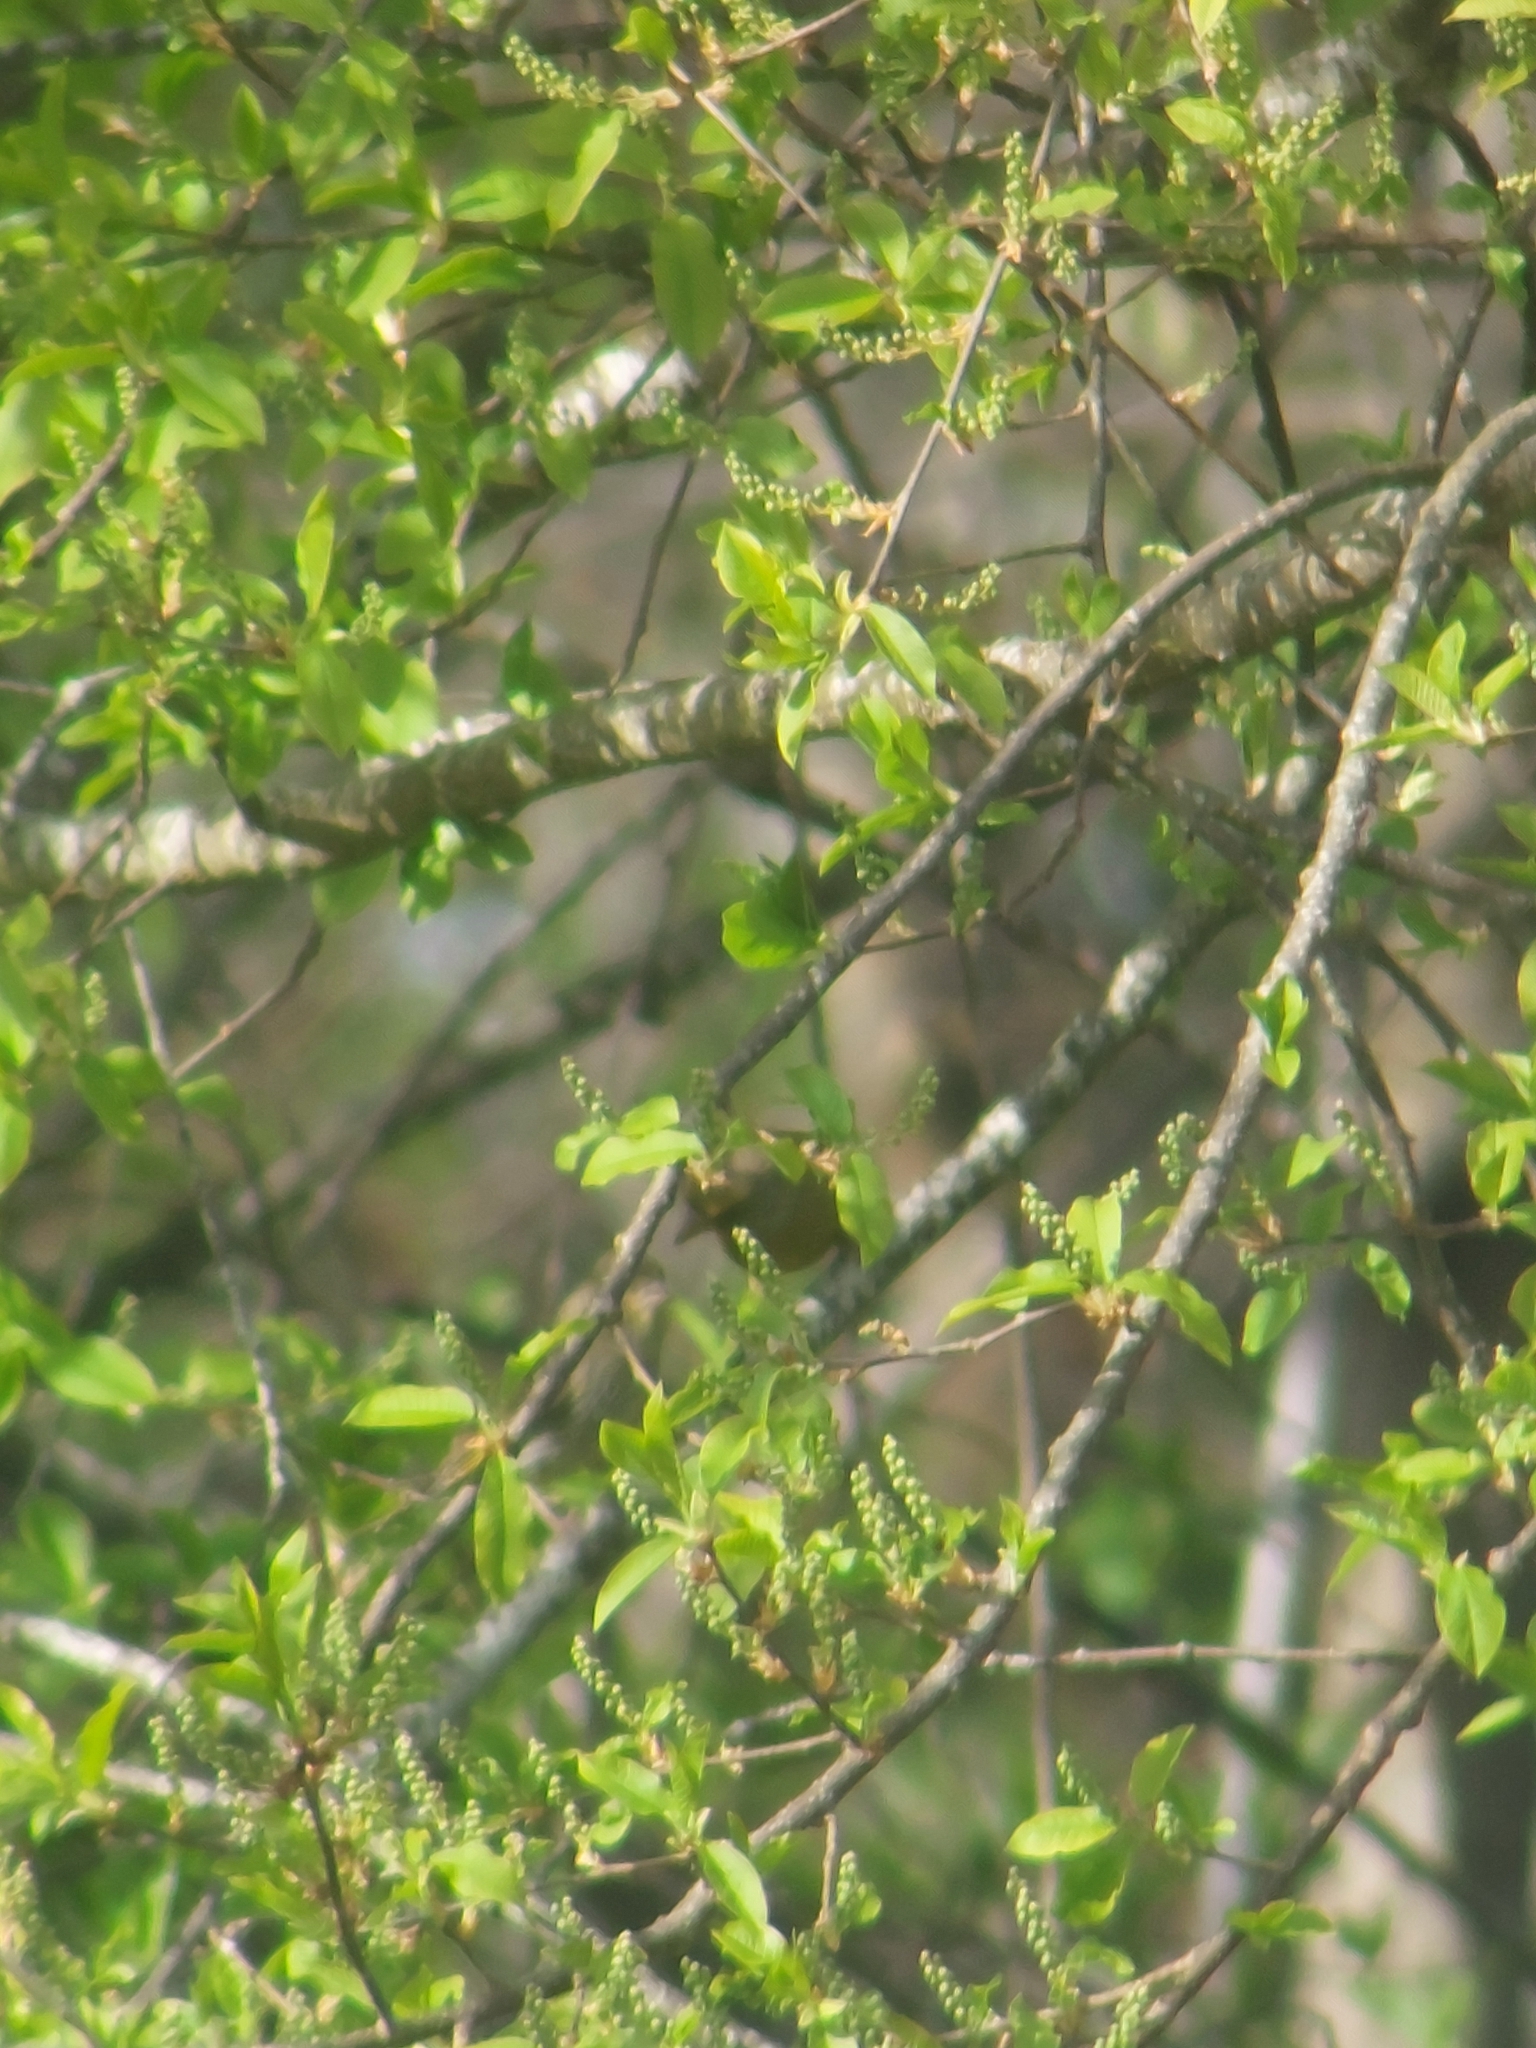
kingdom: Plantae
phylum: Tracheophyta
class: Liliopsida
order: Poales
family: Poaceae
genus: Chloris
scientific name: Chloris chloris
